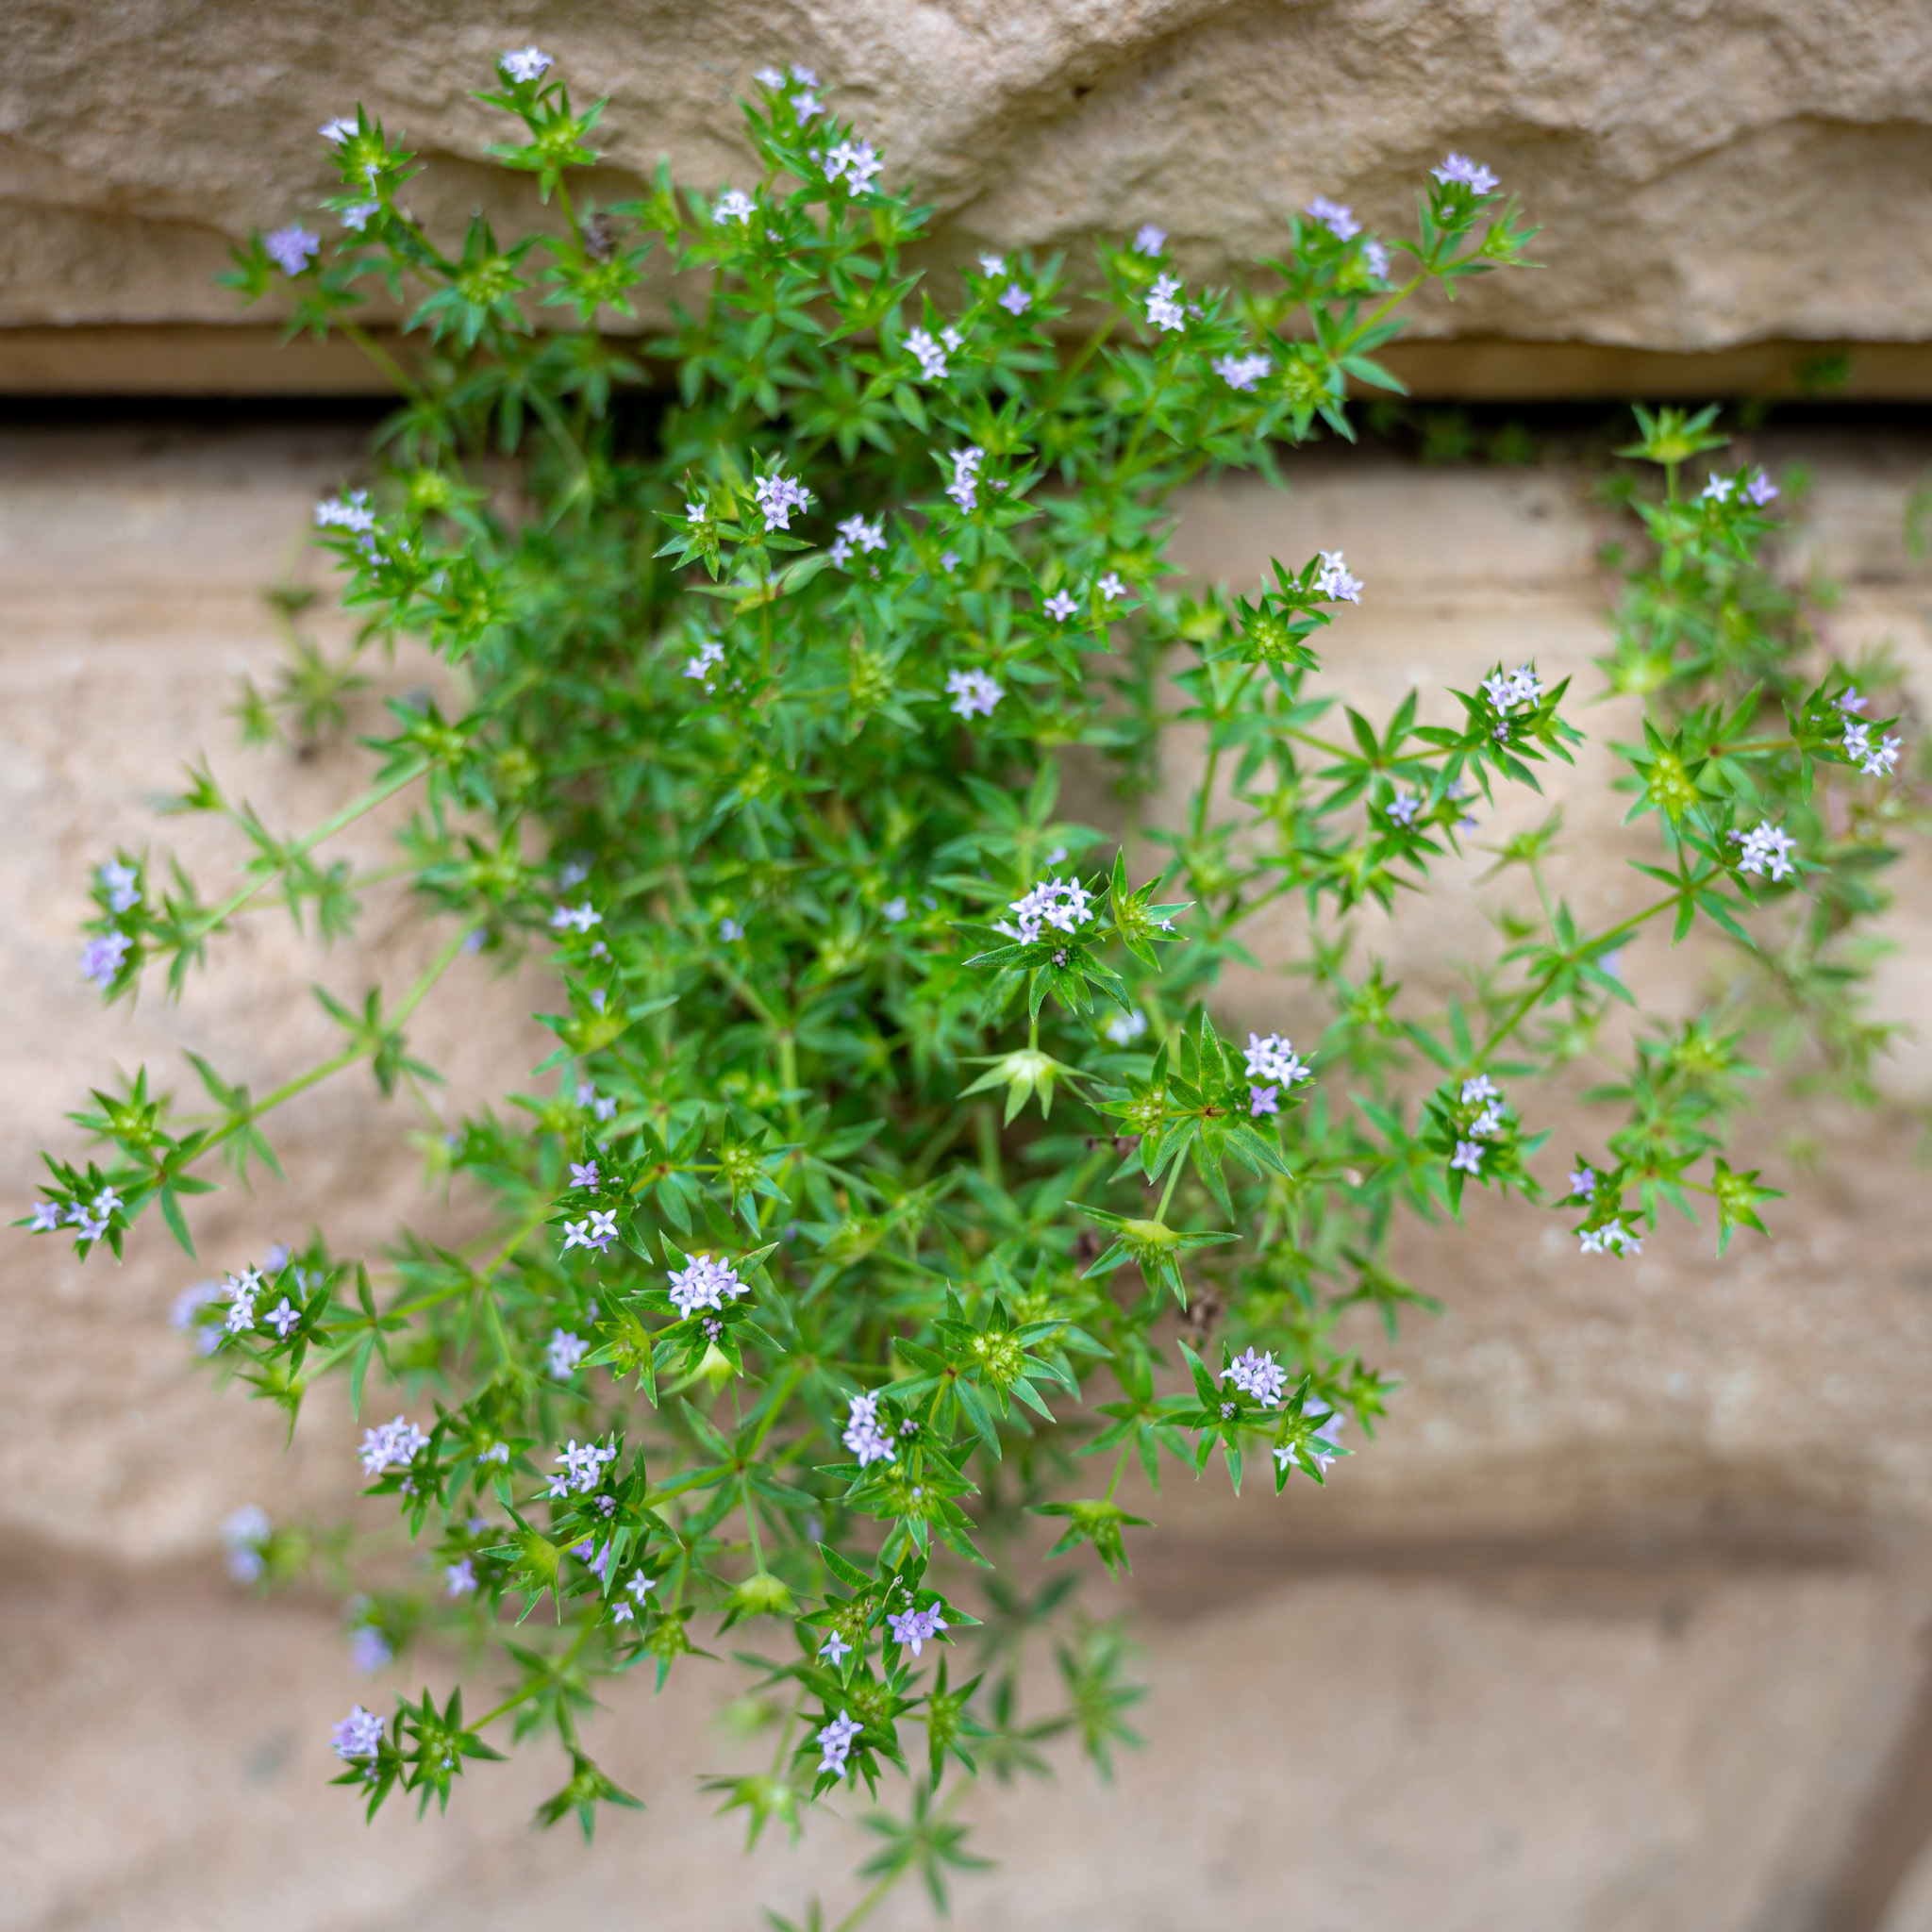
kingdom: Plantae
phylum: Tracheophyta
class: Magnoliopsida
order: Gentianales
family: Rubiaceae
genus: Sherardia
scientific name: Sherardia arvensis
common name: Field madder
